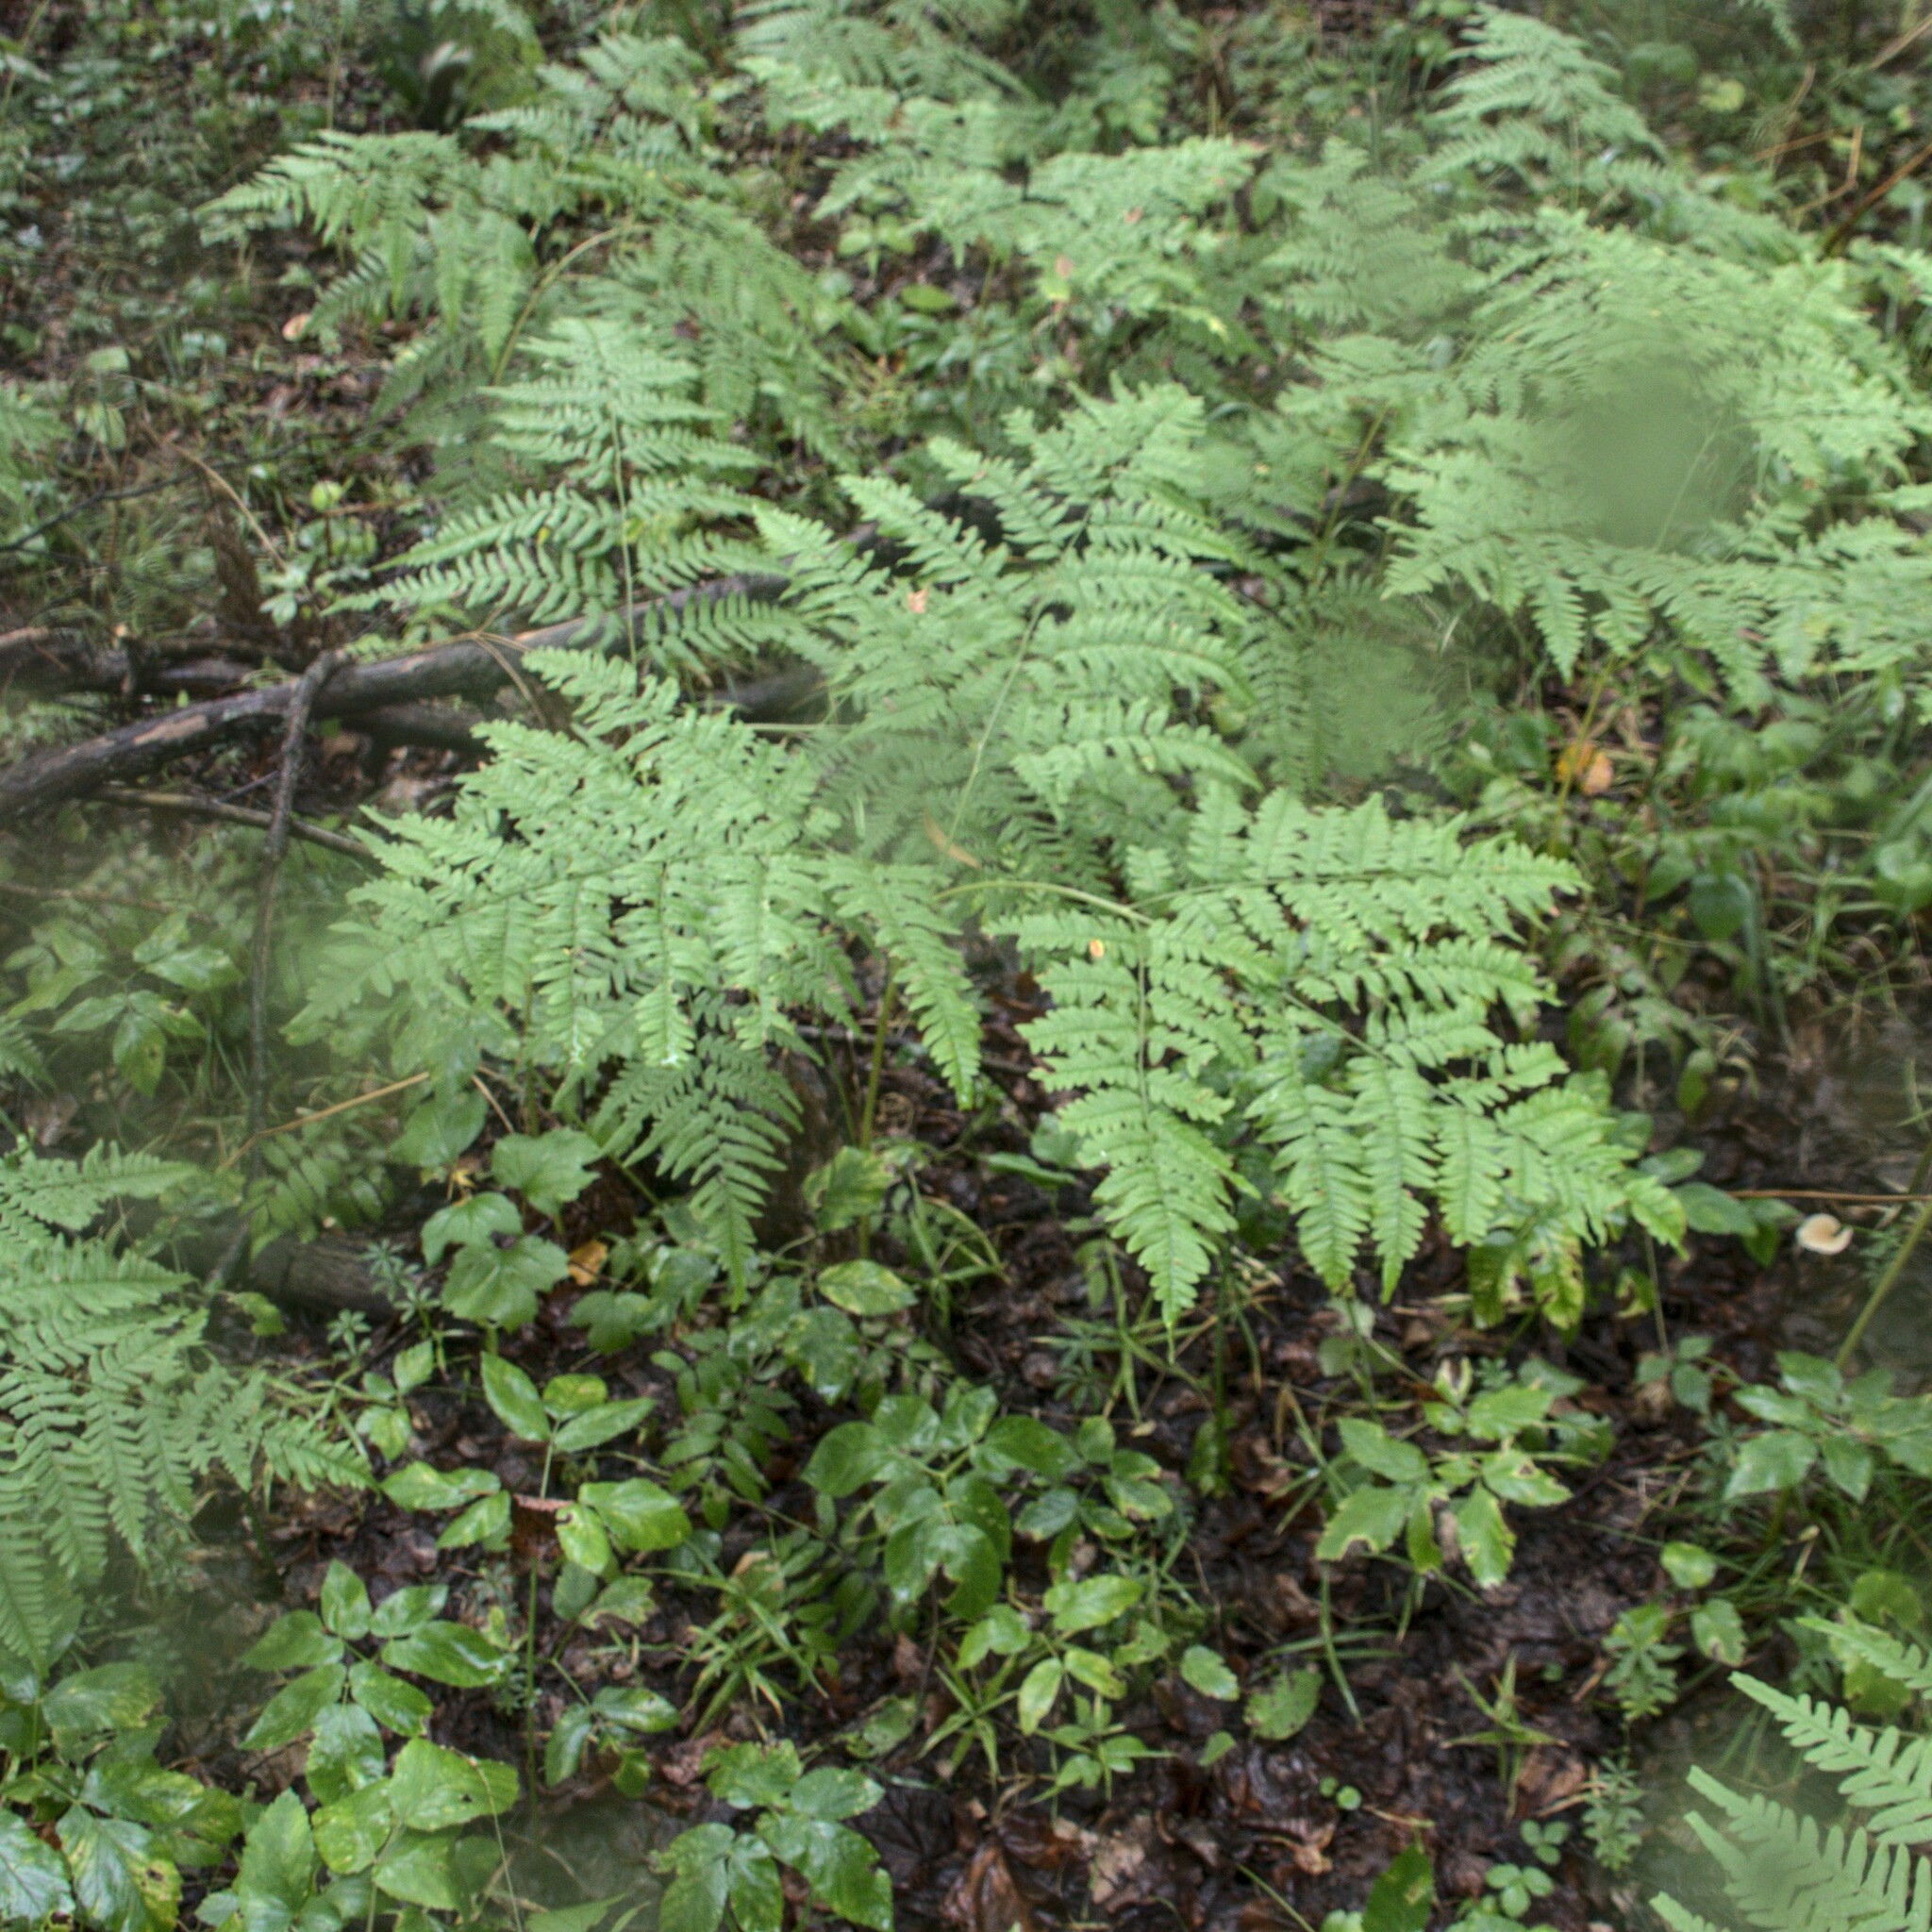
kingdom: Plantae
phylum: Tracheophyta
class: Polypodiopsida
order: Polypodiales
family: Dennstaedtiaceae
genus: Pteridium
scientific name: Pteridium aquilinum
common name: Bracken
